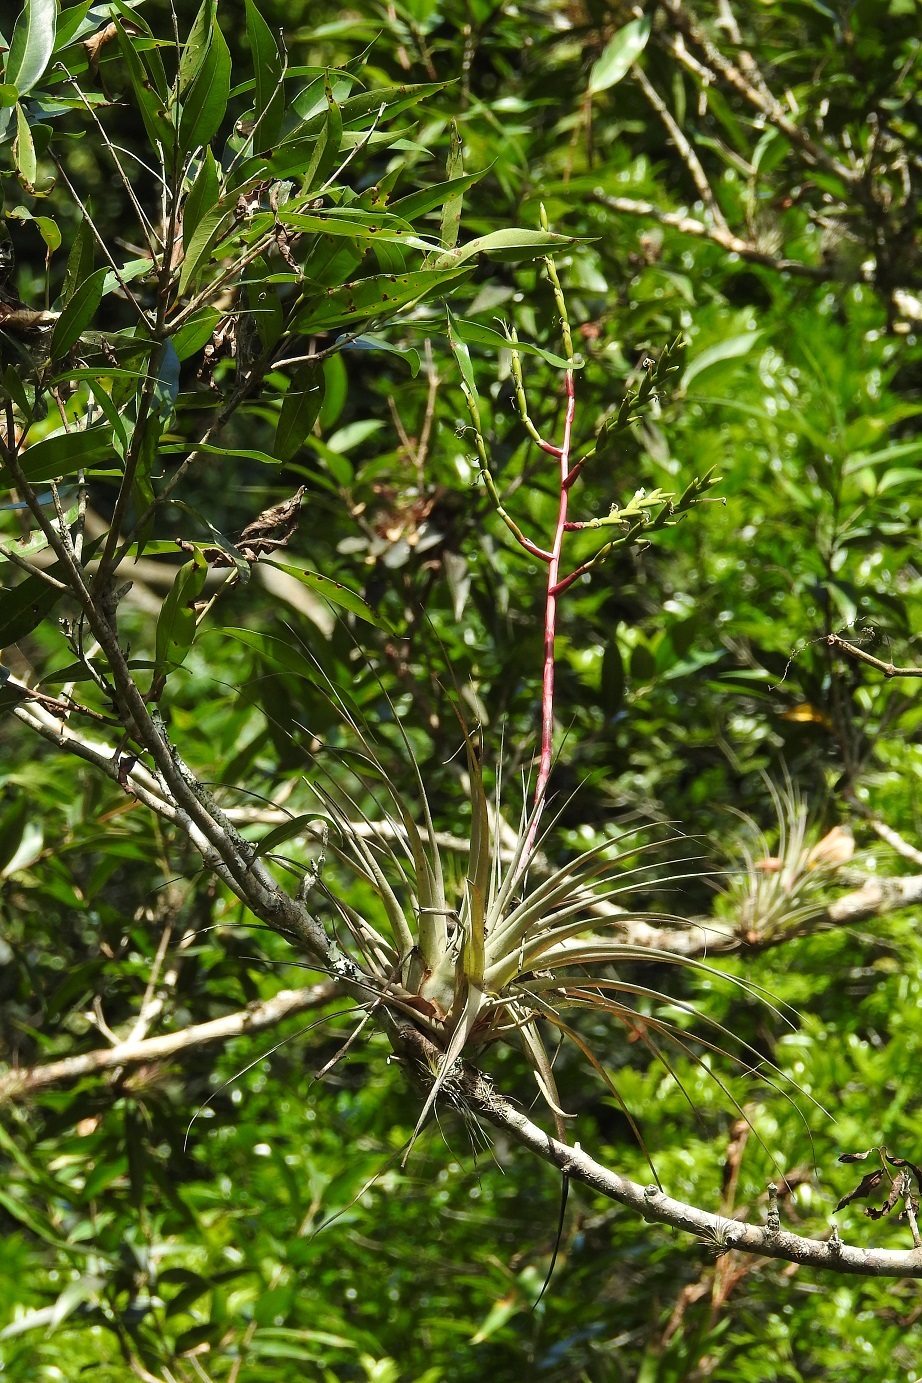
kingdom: Plantae
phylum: Tracheophyta
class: Liliopsida
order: Poales
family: Bromeliaceae
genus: Tillandsia
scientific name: Tillandsia elusiva
